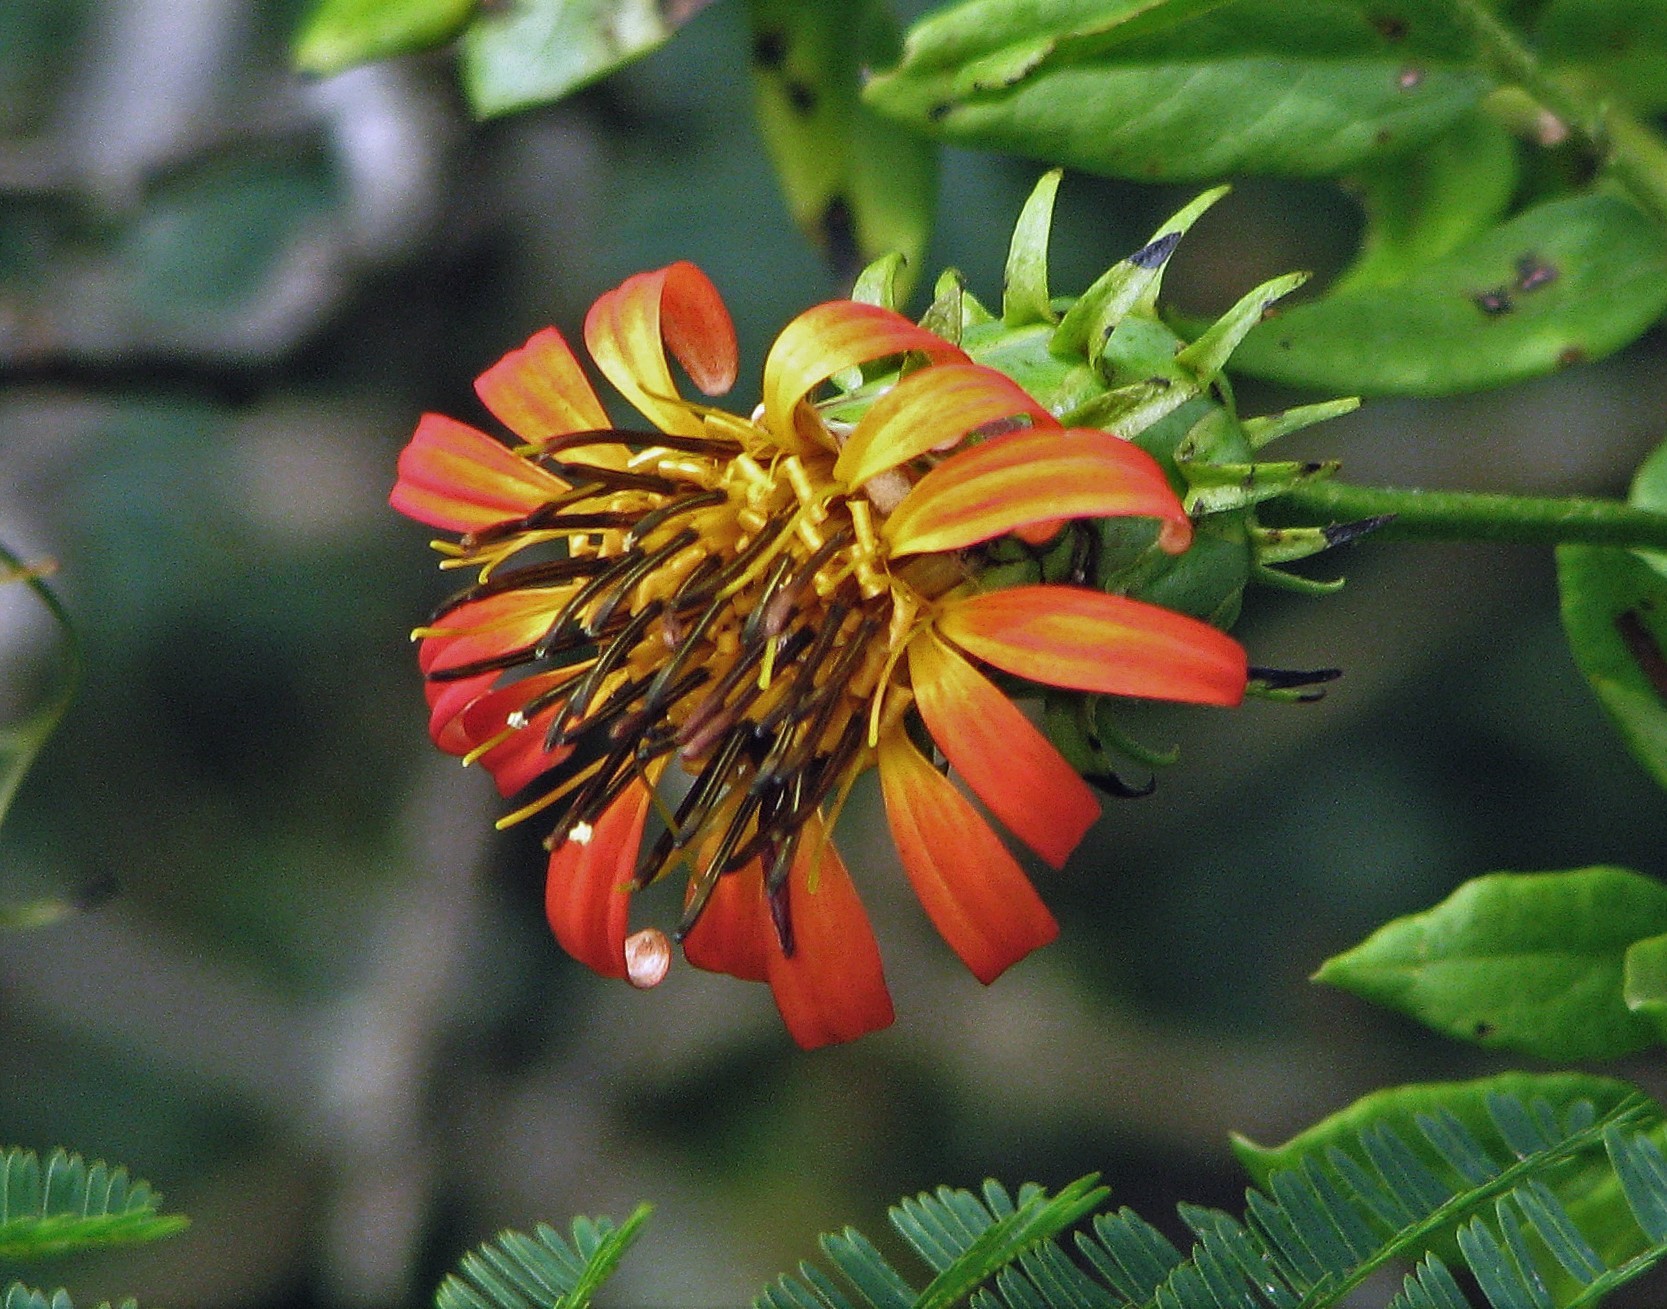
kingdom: Plantae
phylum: Tracheophyta
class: Magnoliopsida
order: Asterales
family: Asteraceae
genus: Mutisia
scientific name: Mutisia campanulata
